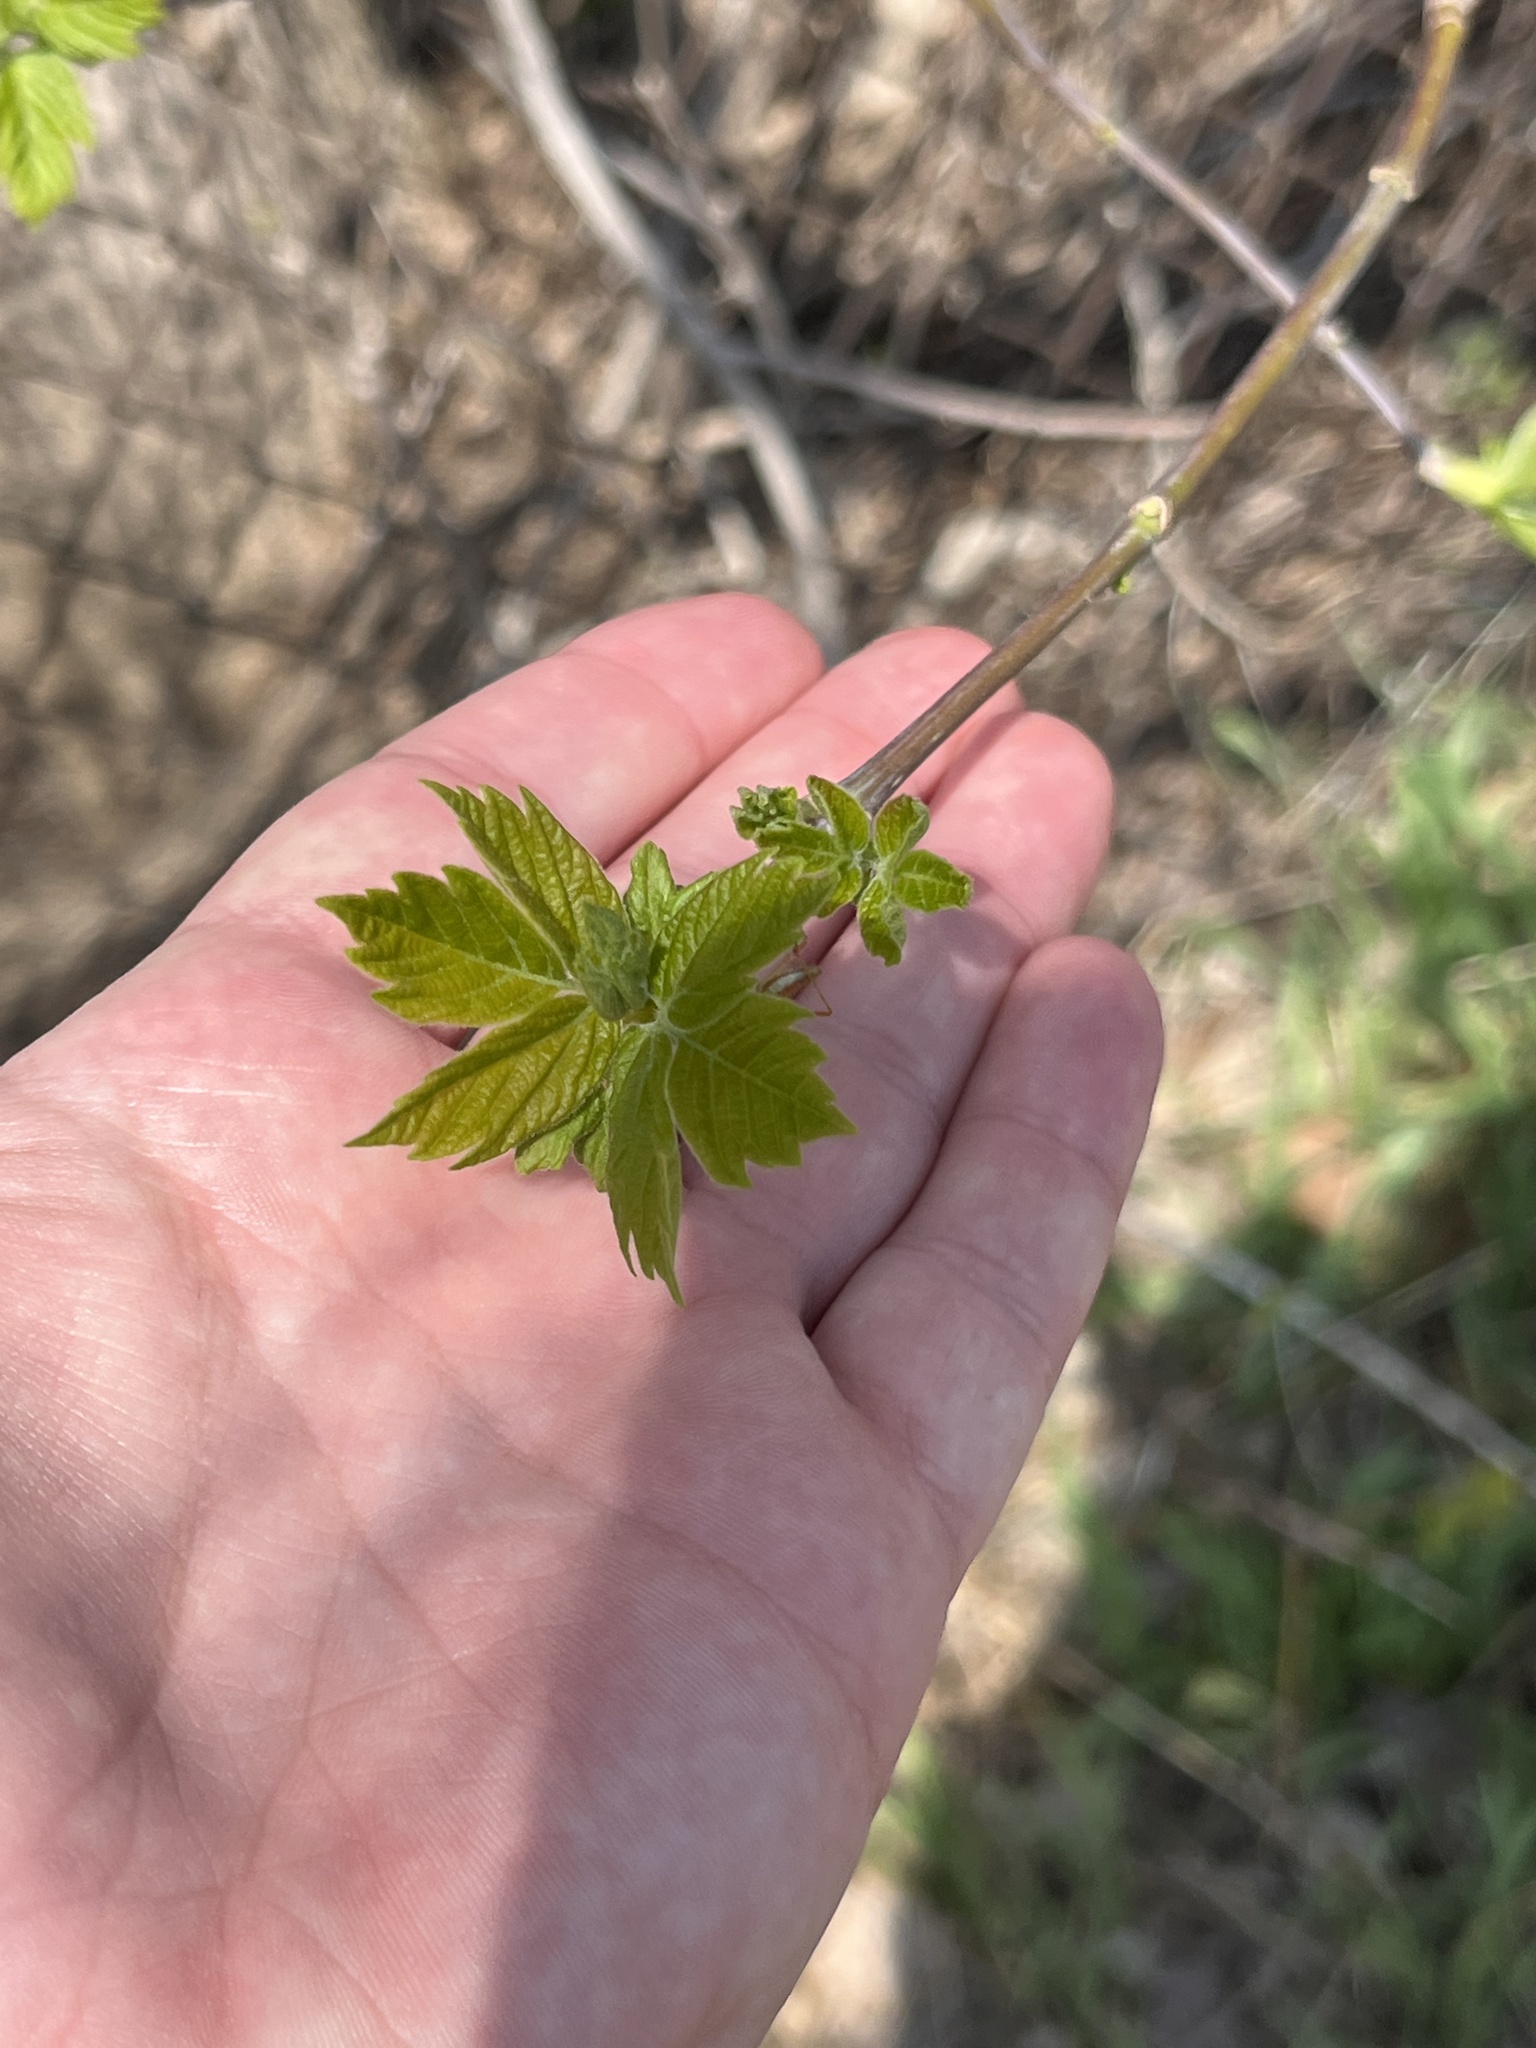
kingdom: Plantae
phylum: Tracheophyta
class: Magnoliopsida
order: Sapindales
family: Sapindaceae
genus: Acer
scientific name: Acer negundo
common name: Ashleaf maple
